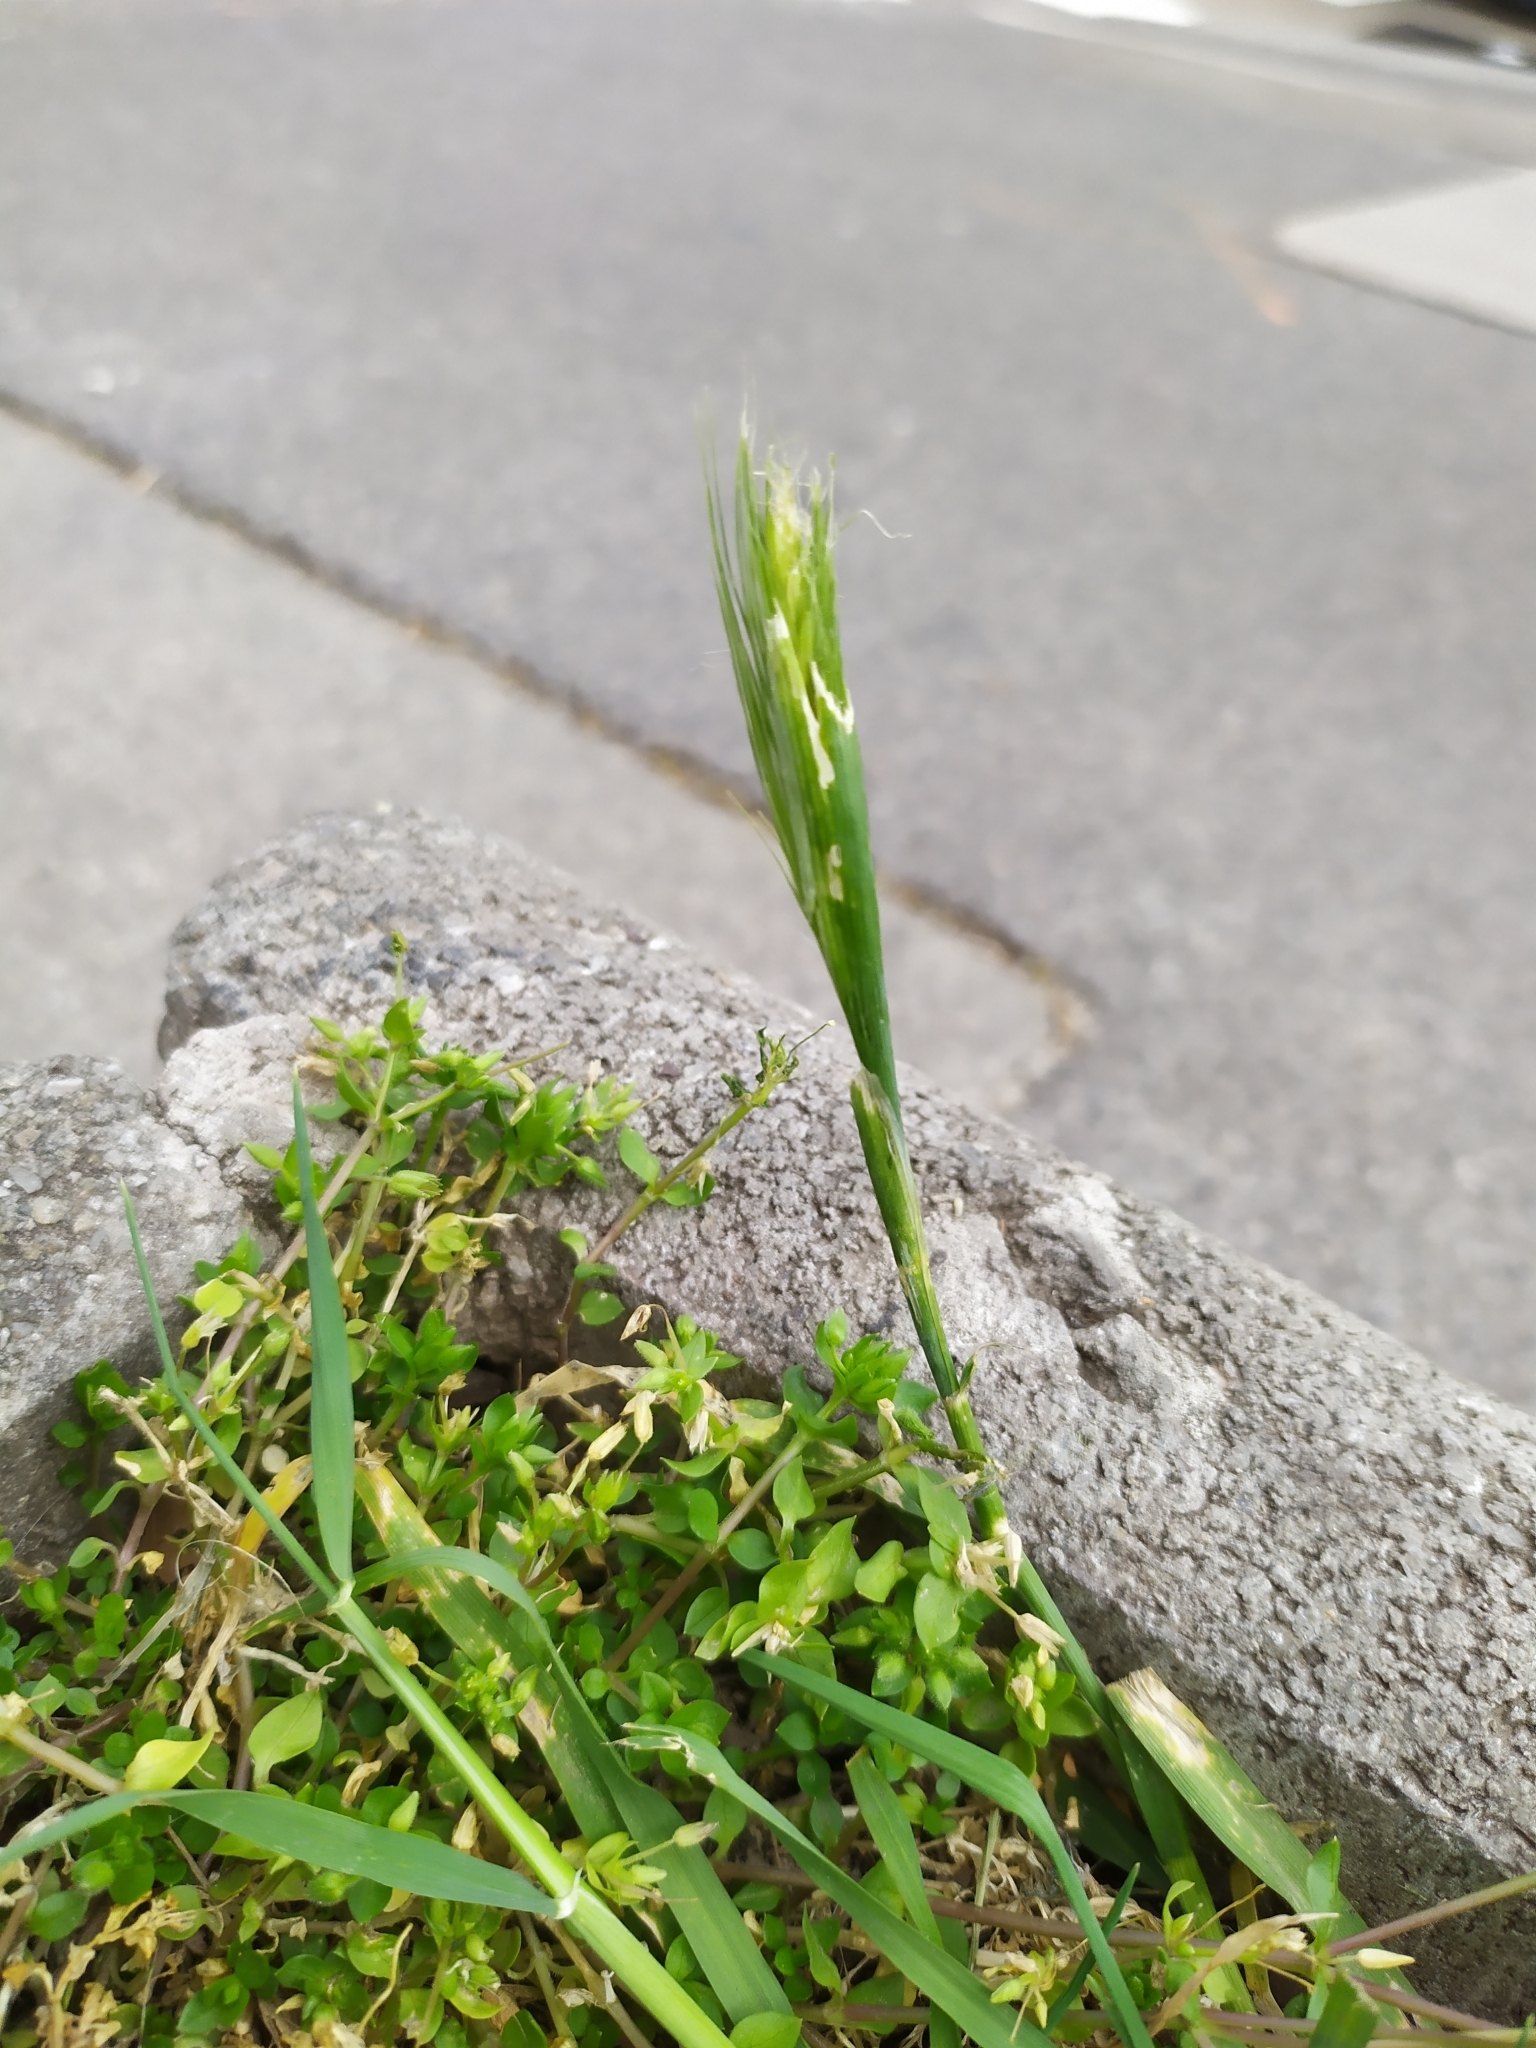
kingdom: Plantae
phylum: Tracheophyta
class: Liliopsida
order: Poales
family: Poaceae
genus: Hordeum
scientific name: Hordeum murinum
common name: Wall barley
